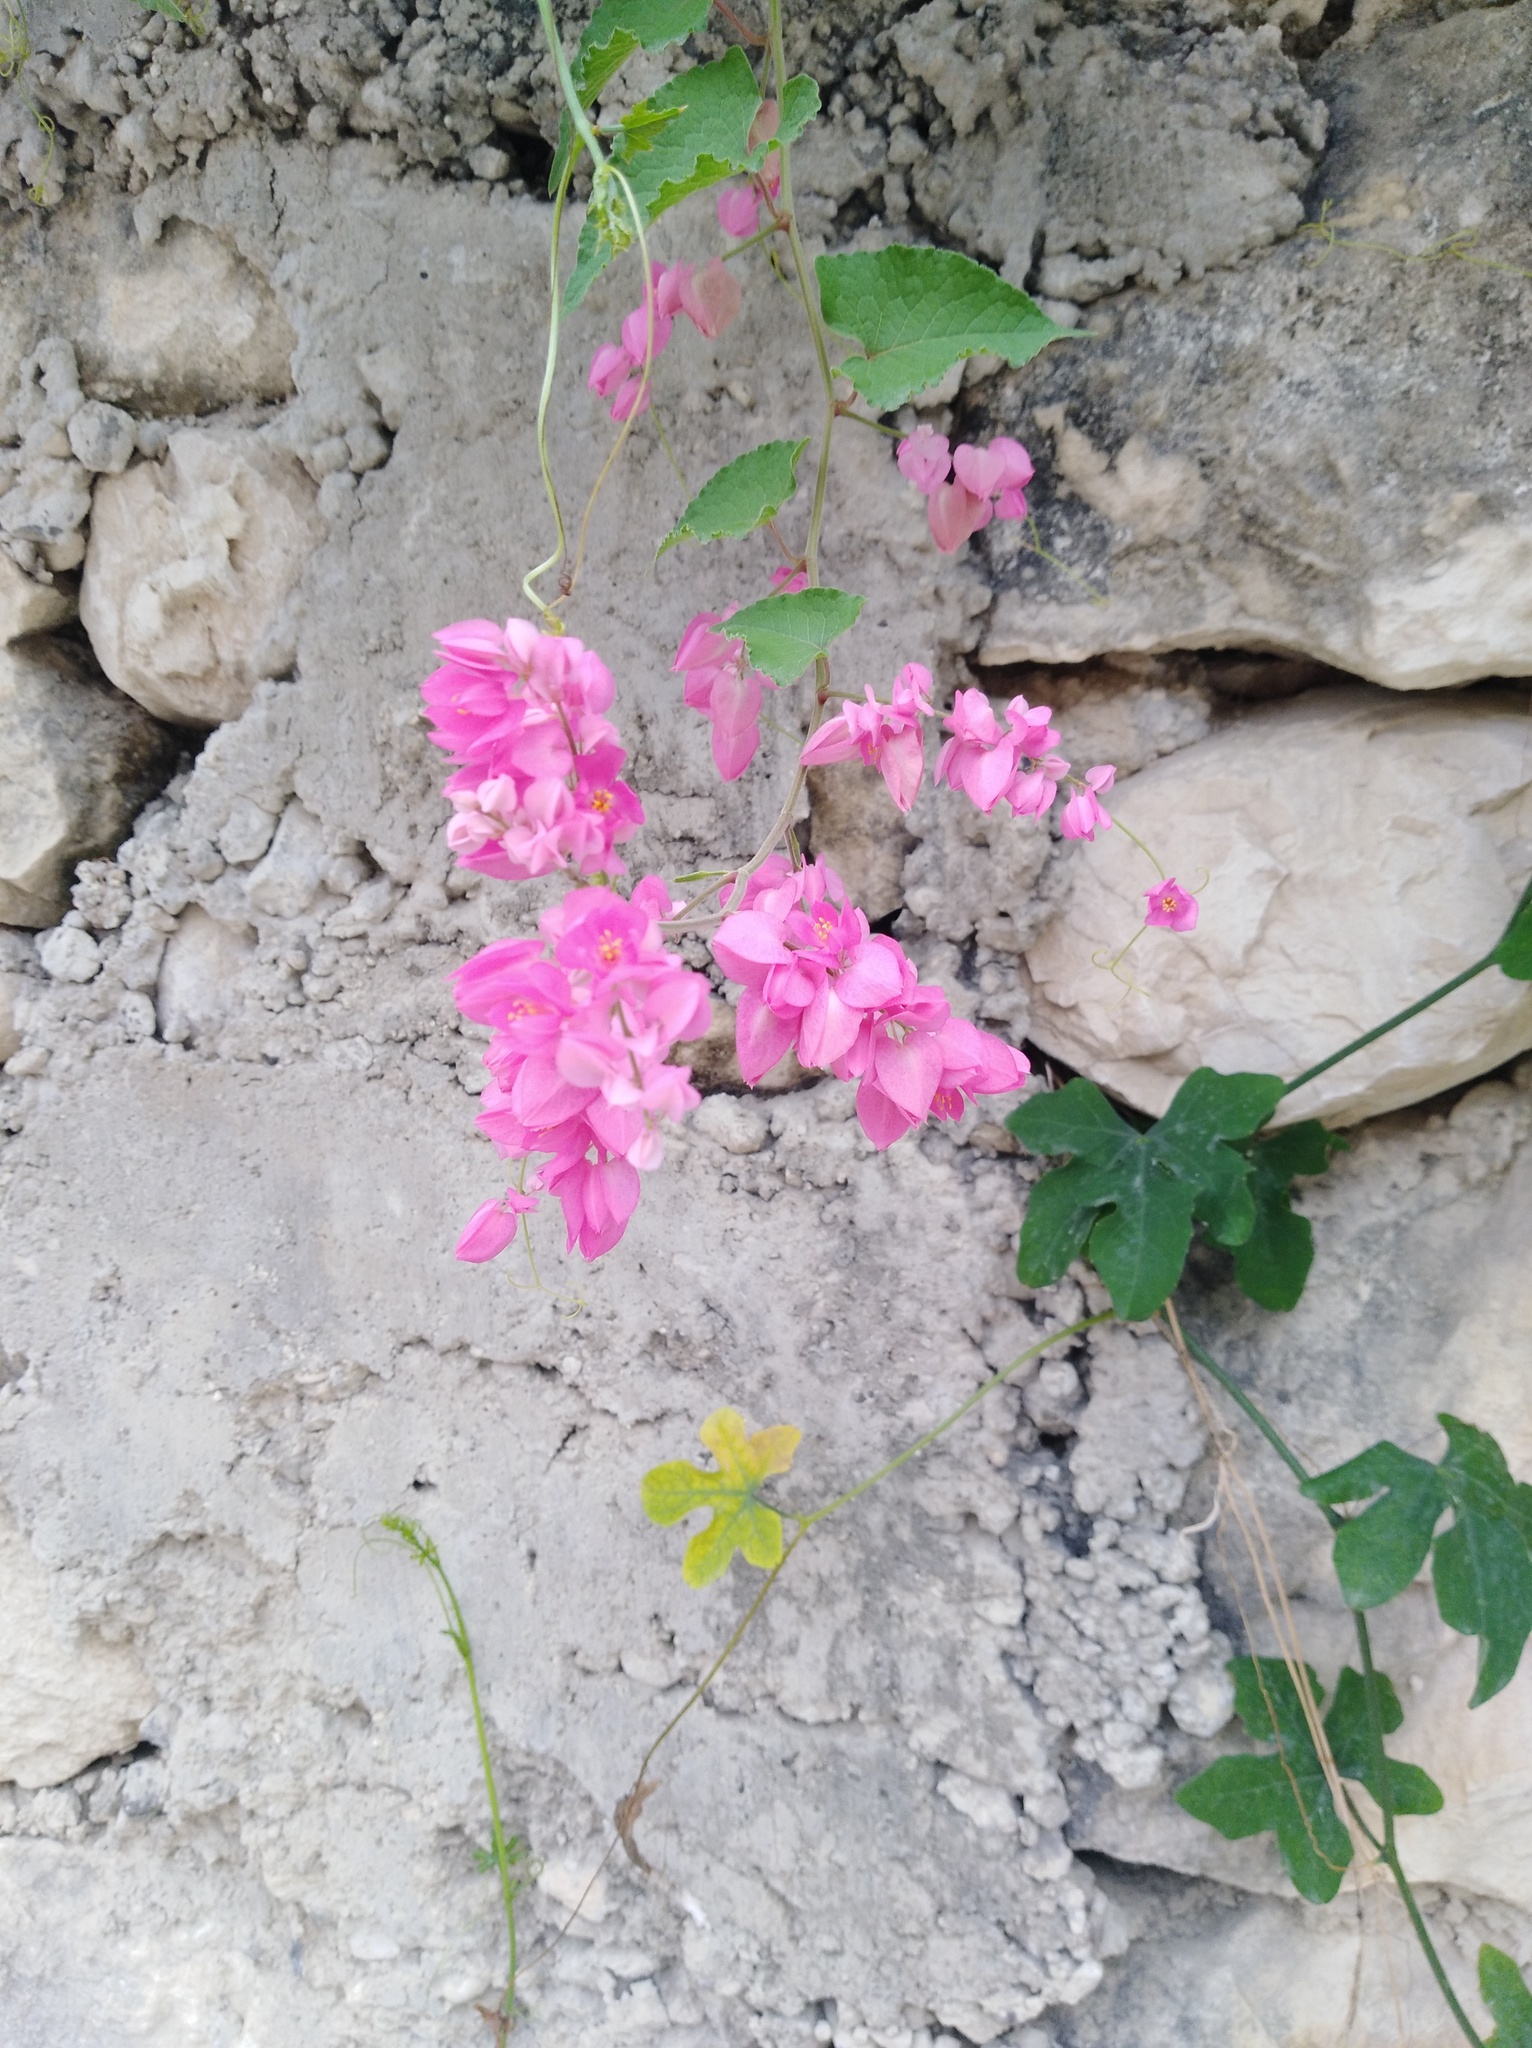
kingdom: Plantae
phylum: Tracheophyta
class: Magnoliopsida
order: Caryophyllales
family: Polygonaceae
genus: Antigonon
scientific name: Antigonon leptopus
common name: Coral vine
